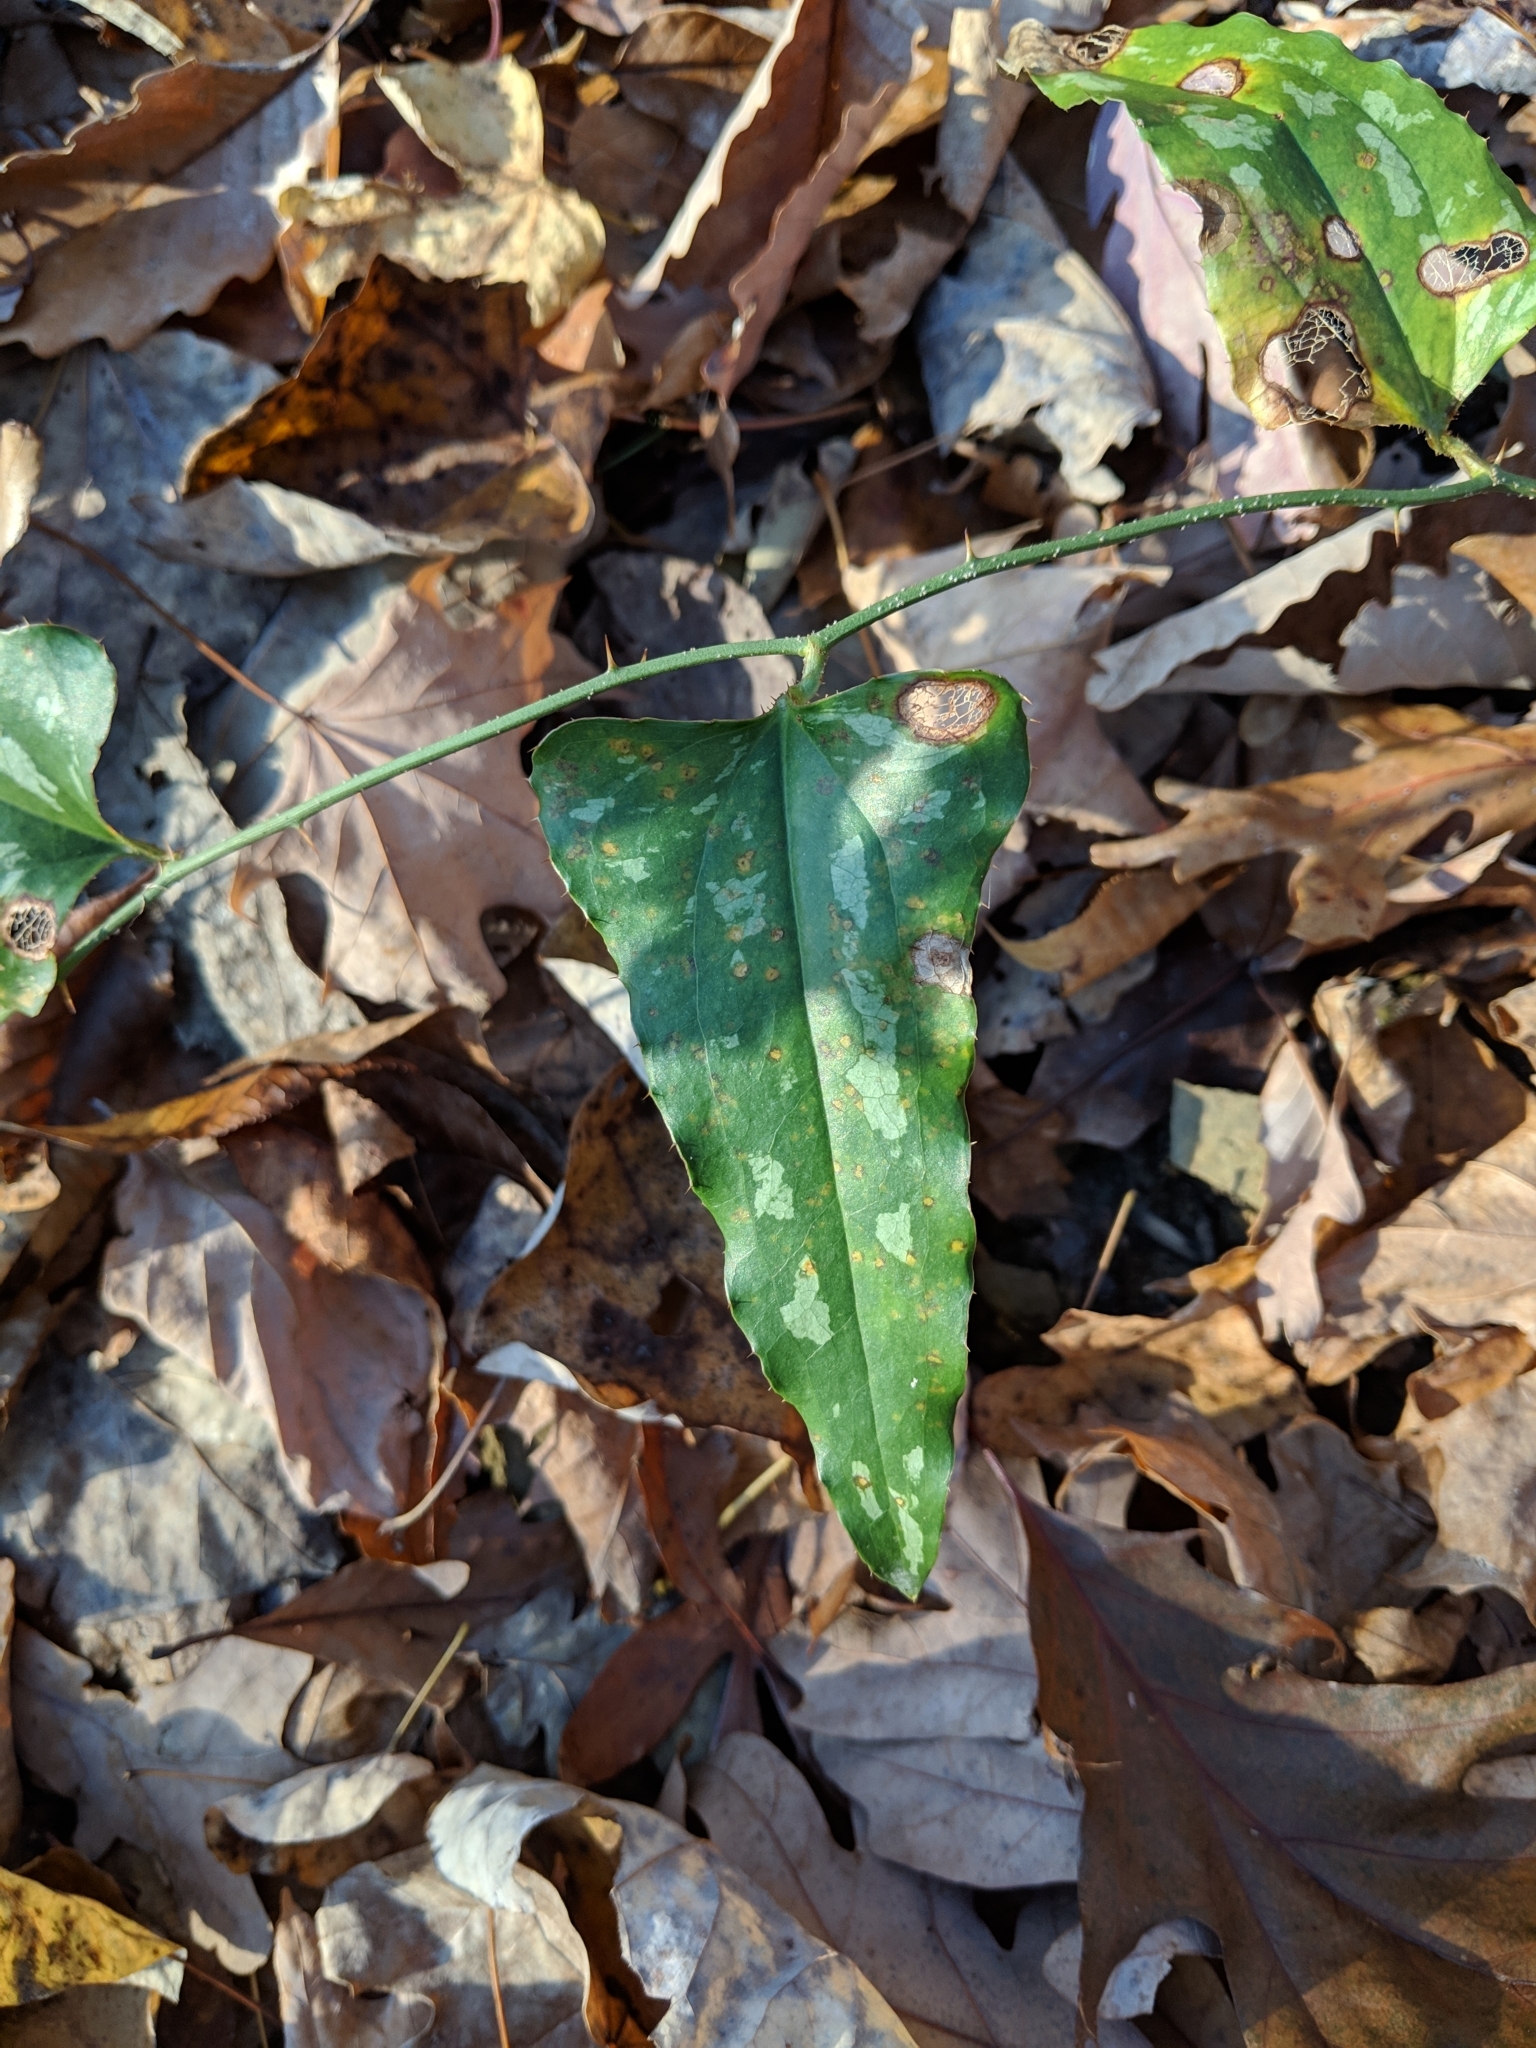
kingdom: Plantae
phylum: Tracheophyta
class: Liliopsida
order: Liliales
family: Smilacaceae
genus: Smilax
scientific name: Smilax bona-nox
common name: Catbrier
